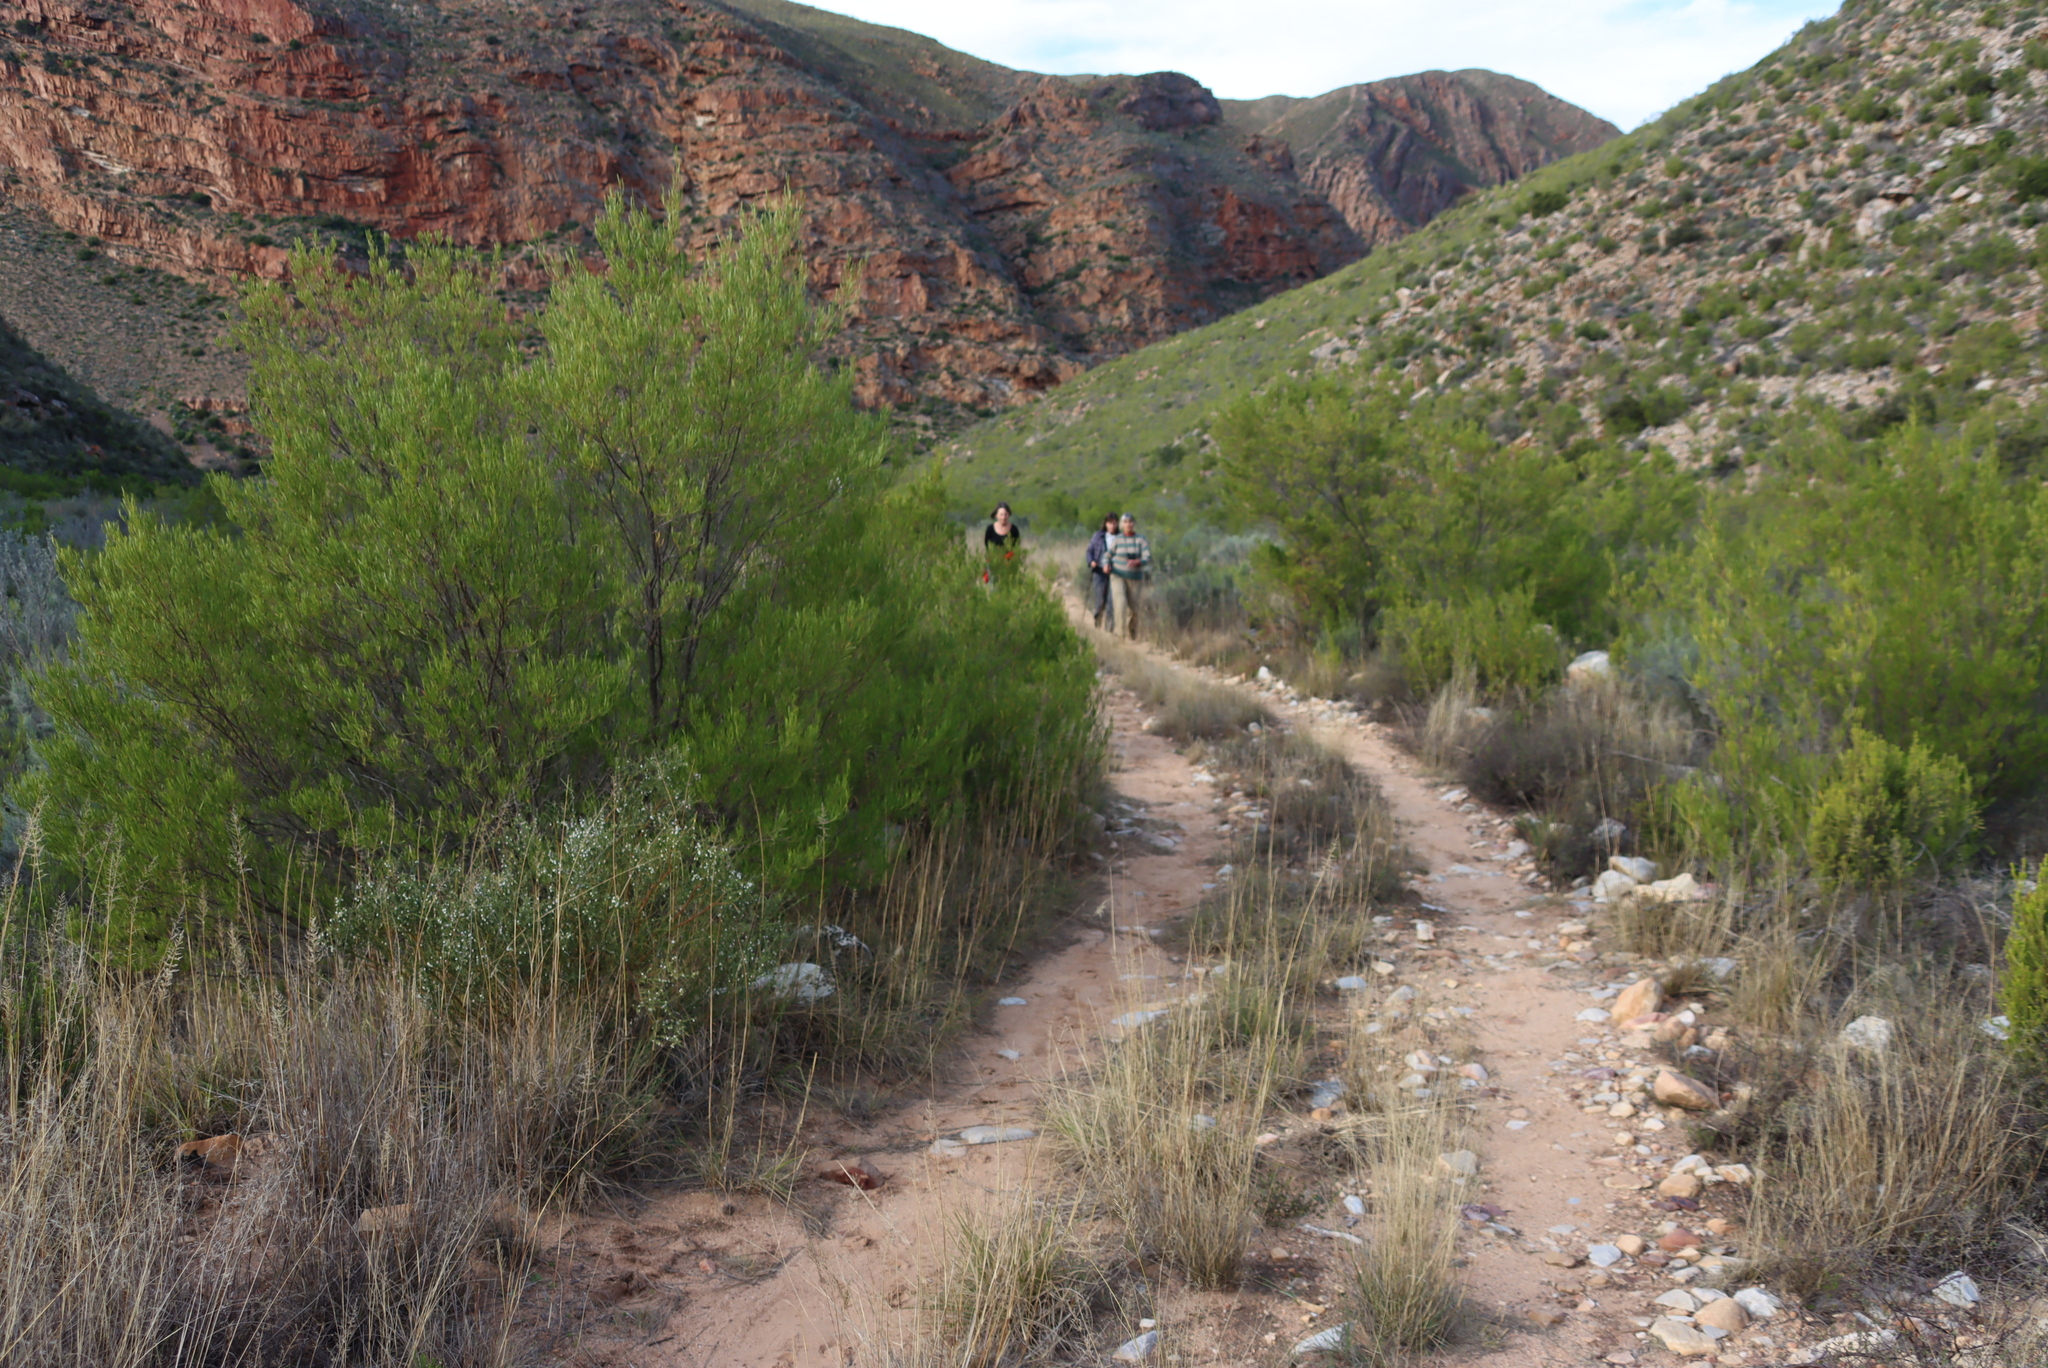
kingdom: Plantae
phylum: Tracheophyta
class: Magnoliopsida
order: Sapindales
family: Sapindaceae
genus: Dodonaea
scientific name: Dodonaea viscosa
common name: Hopbush
